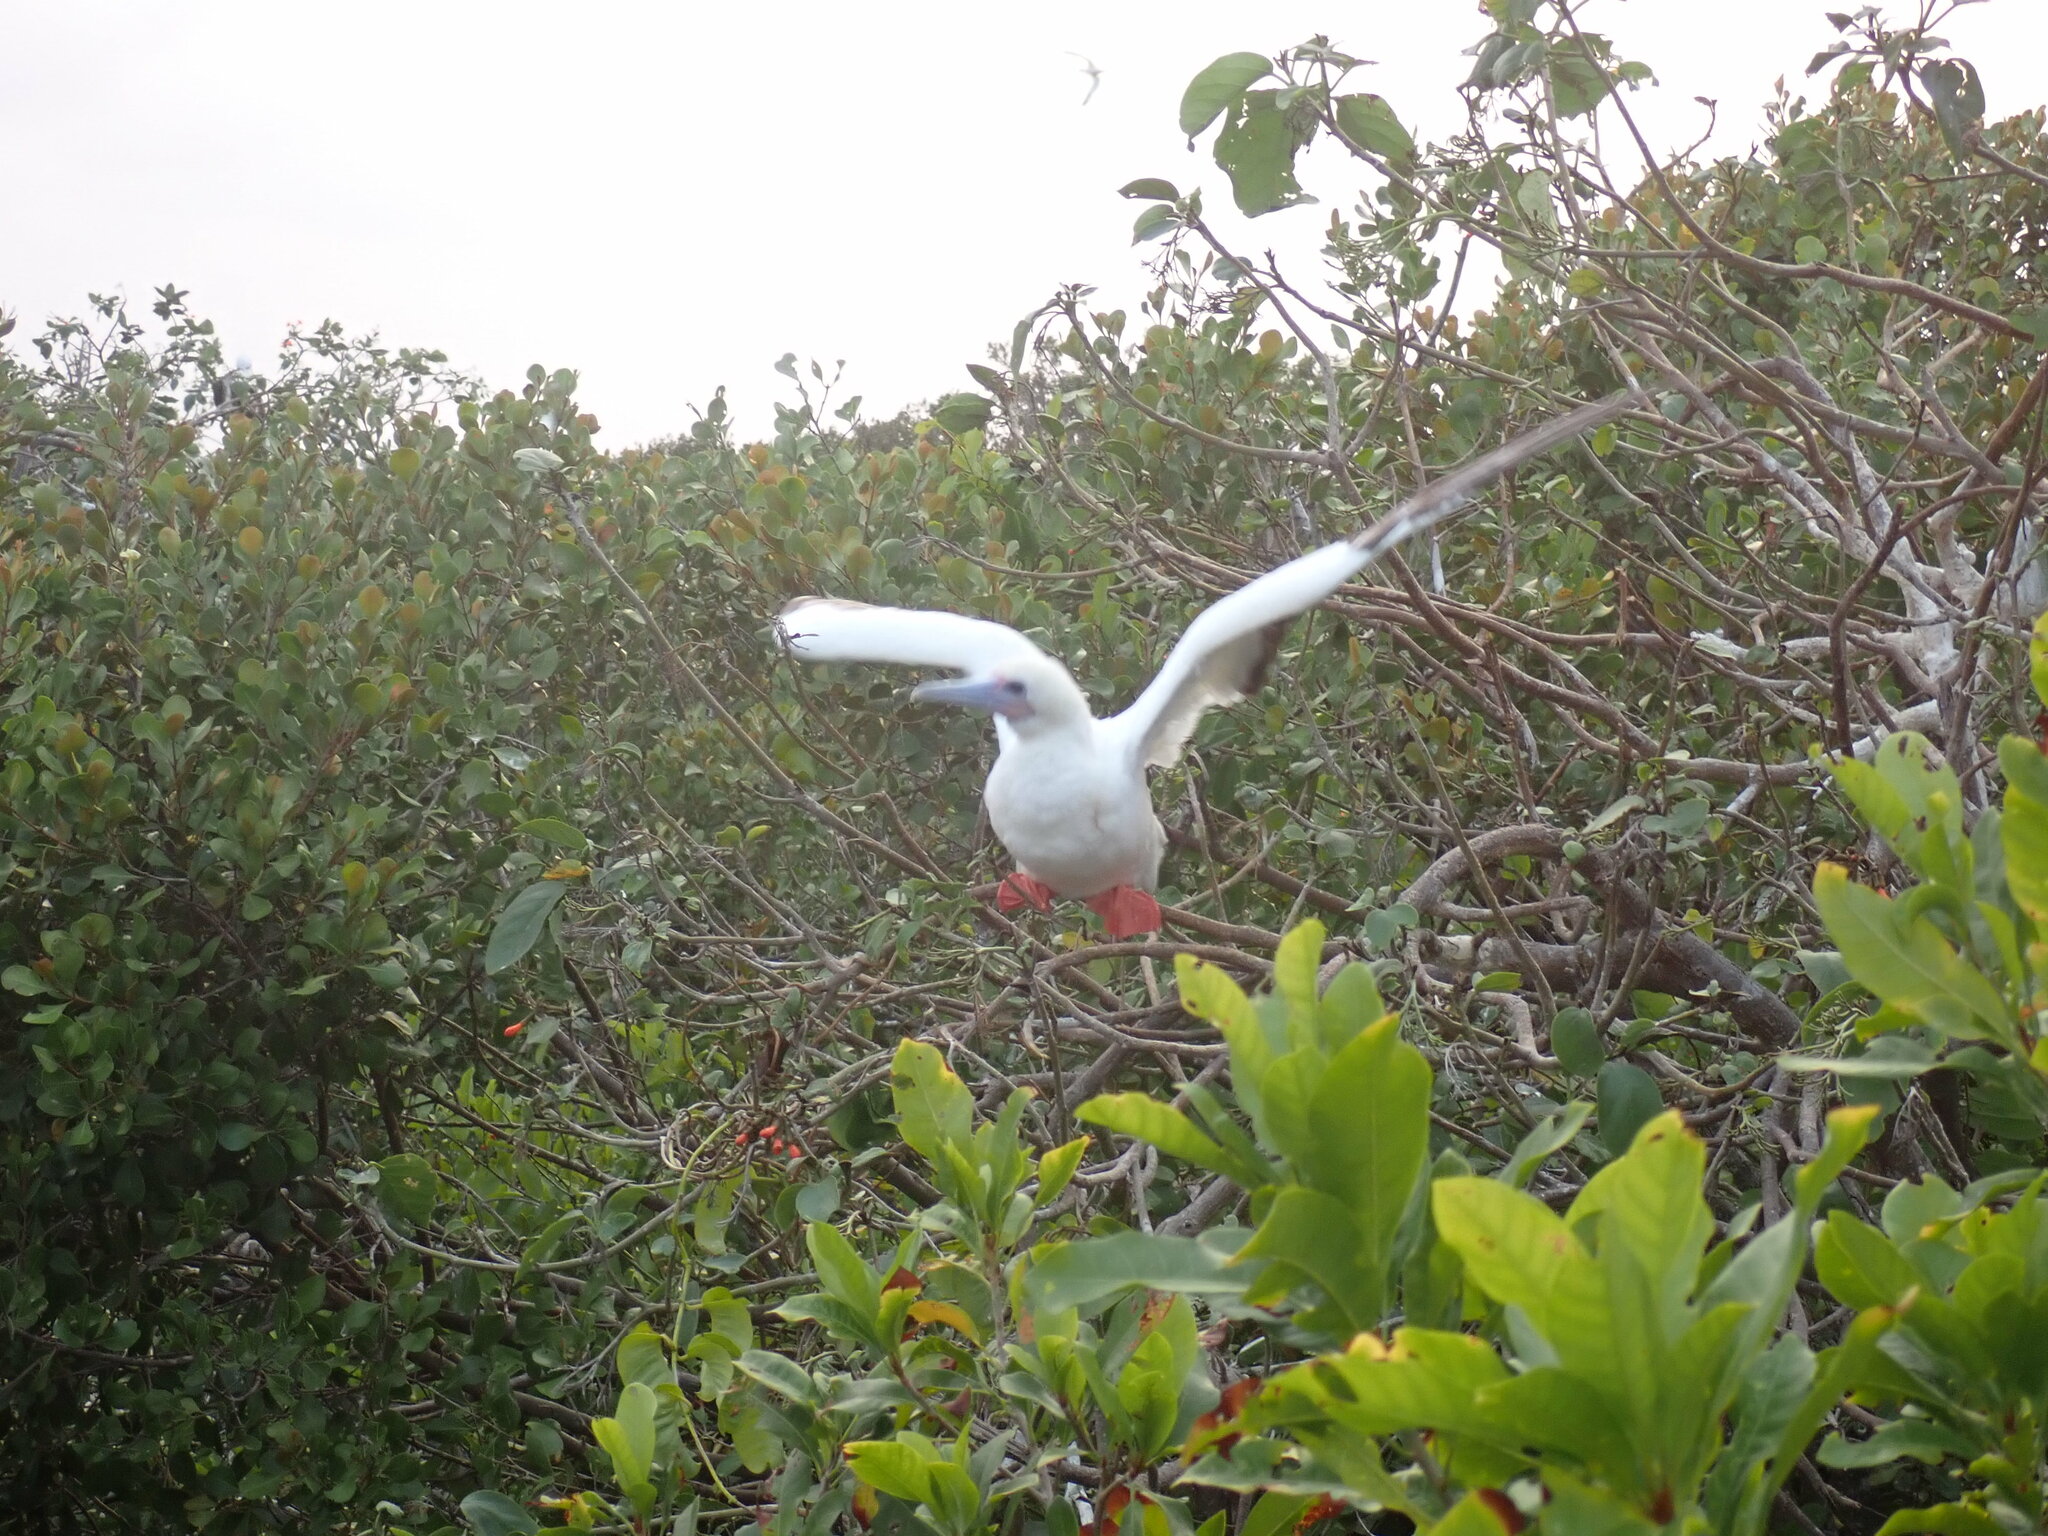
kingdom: Animalia
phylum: Chordata
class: Aves
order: Suliformes
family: Sulidae
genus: Sula
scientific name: Sula sula
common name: Red-footed booby
